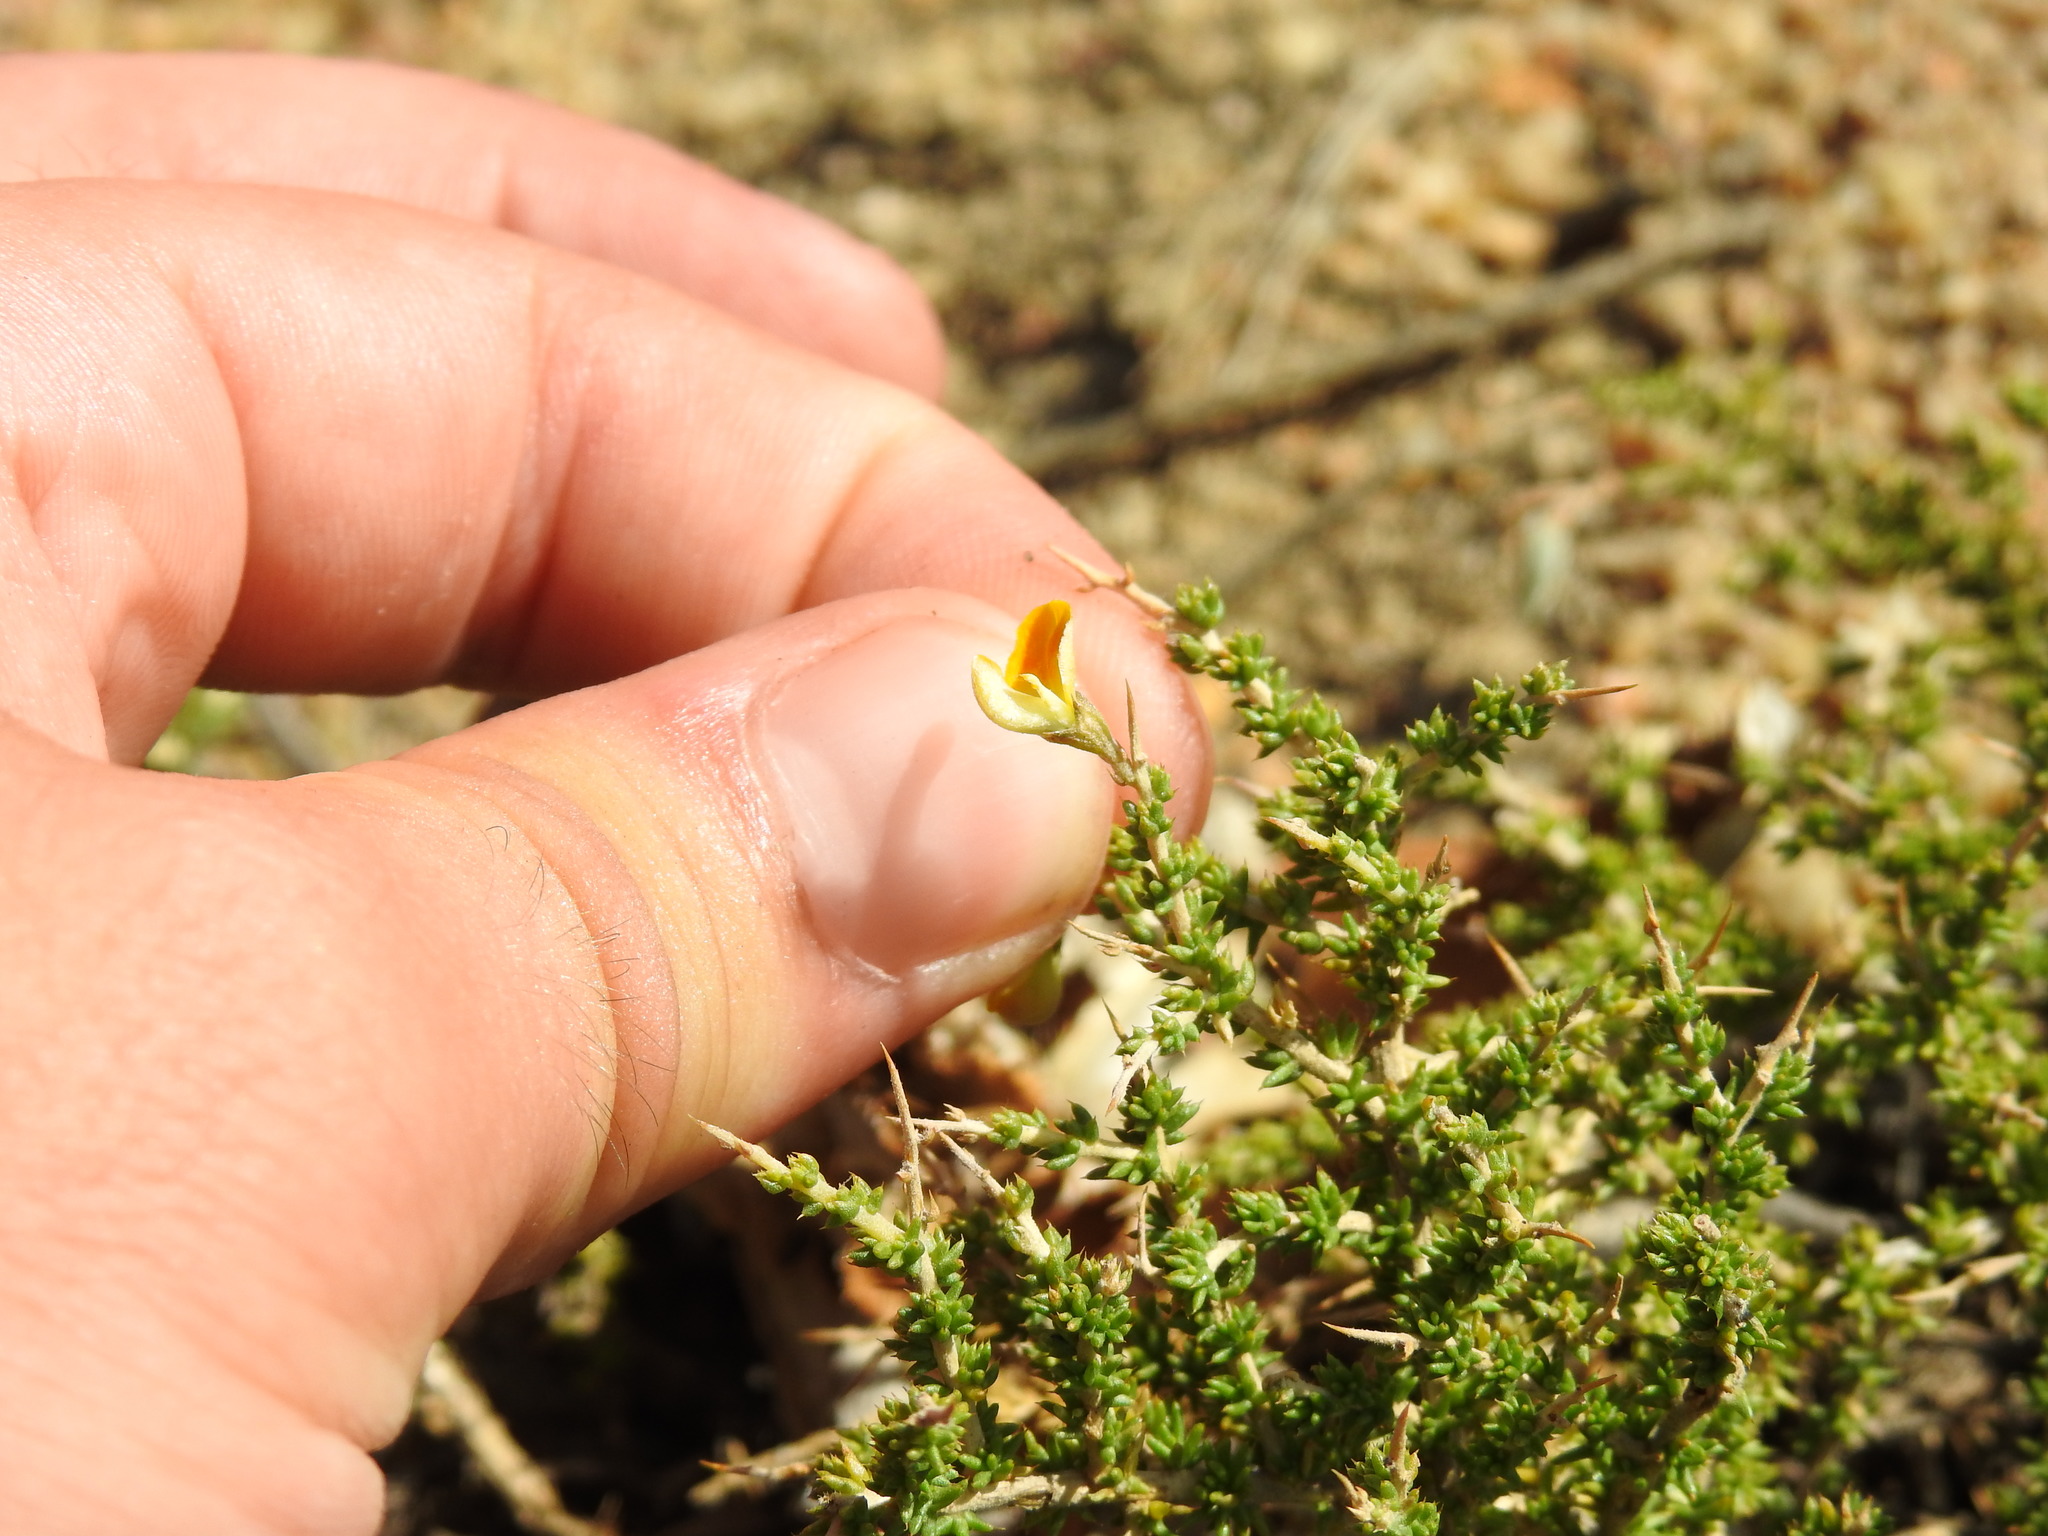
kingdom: Plantae
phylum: Tracheophyta
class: Magnoliopsida
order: Fabales
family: Fabaceae
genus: Aspalathus
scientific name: Aspalathus acuminata
